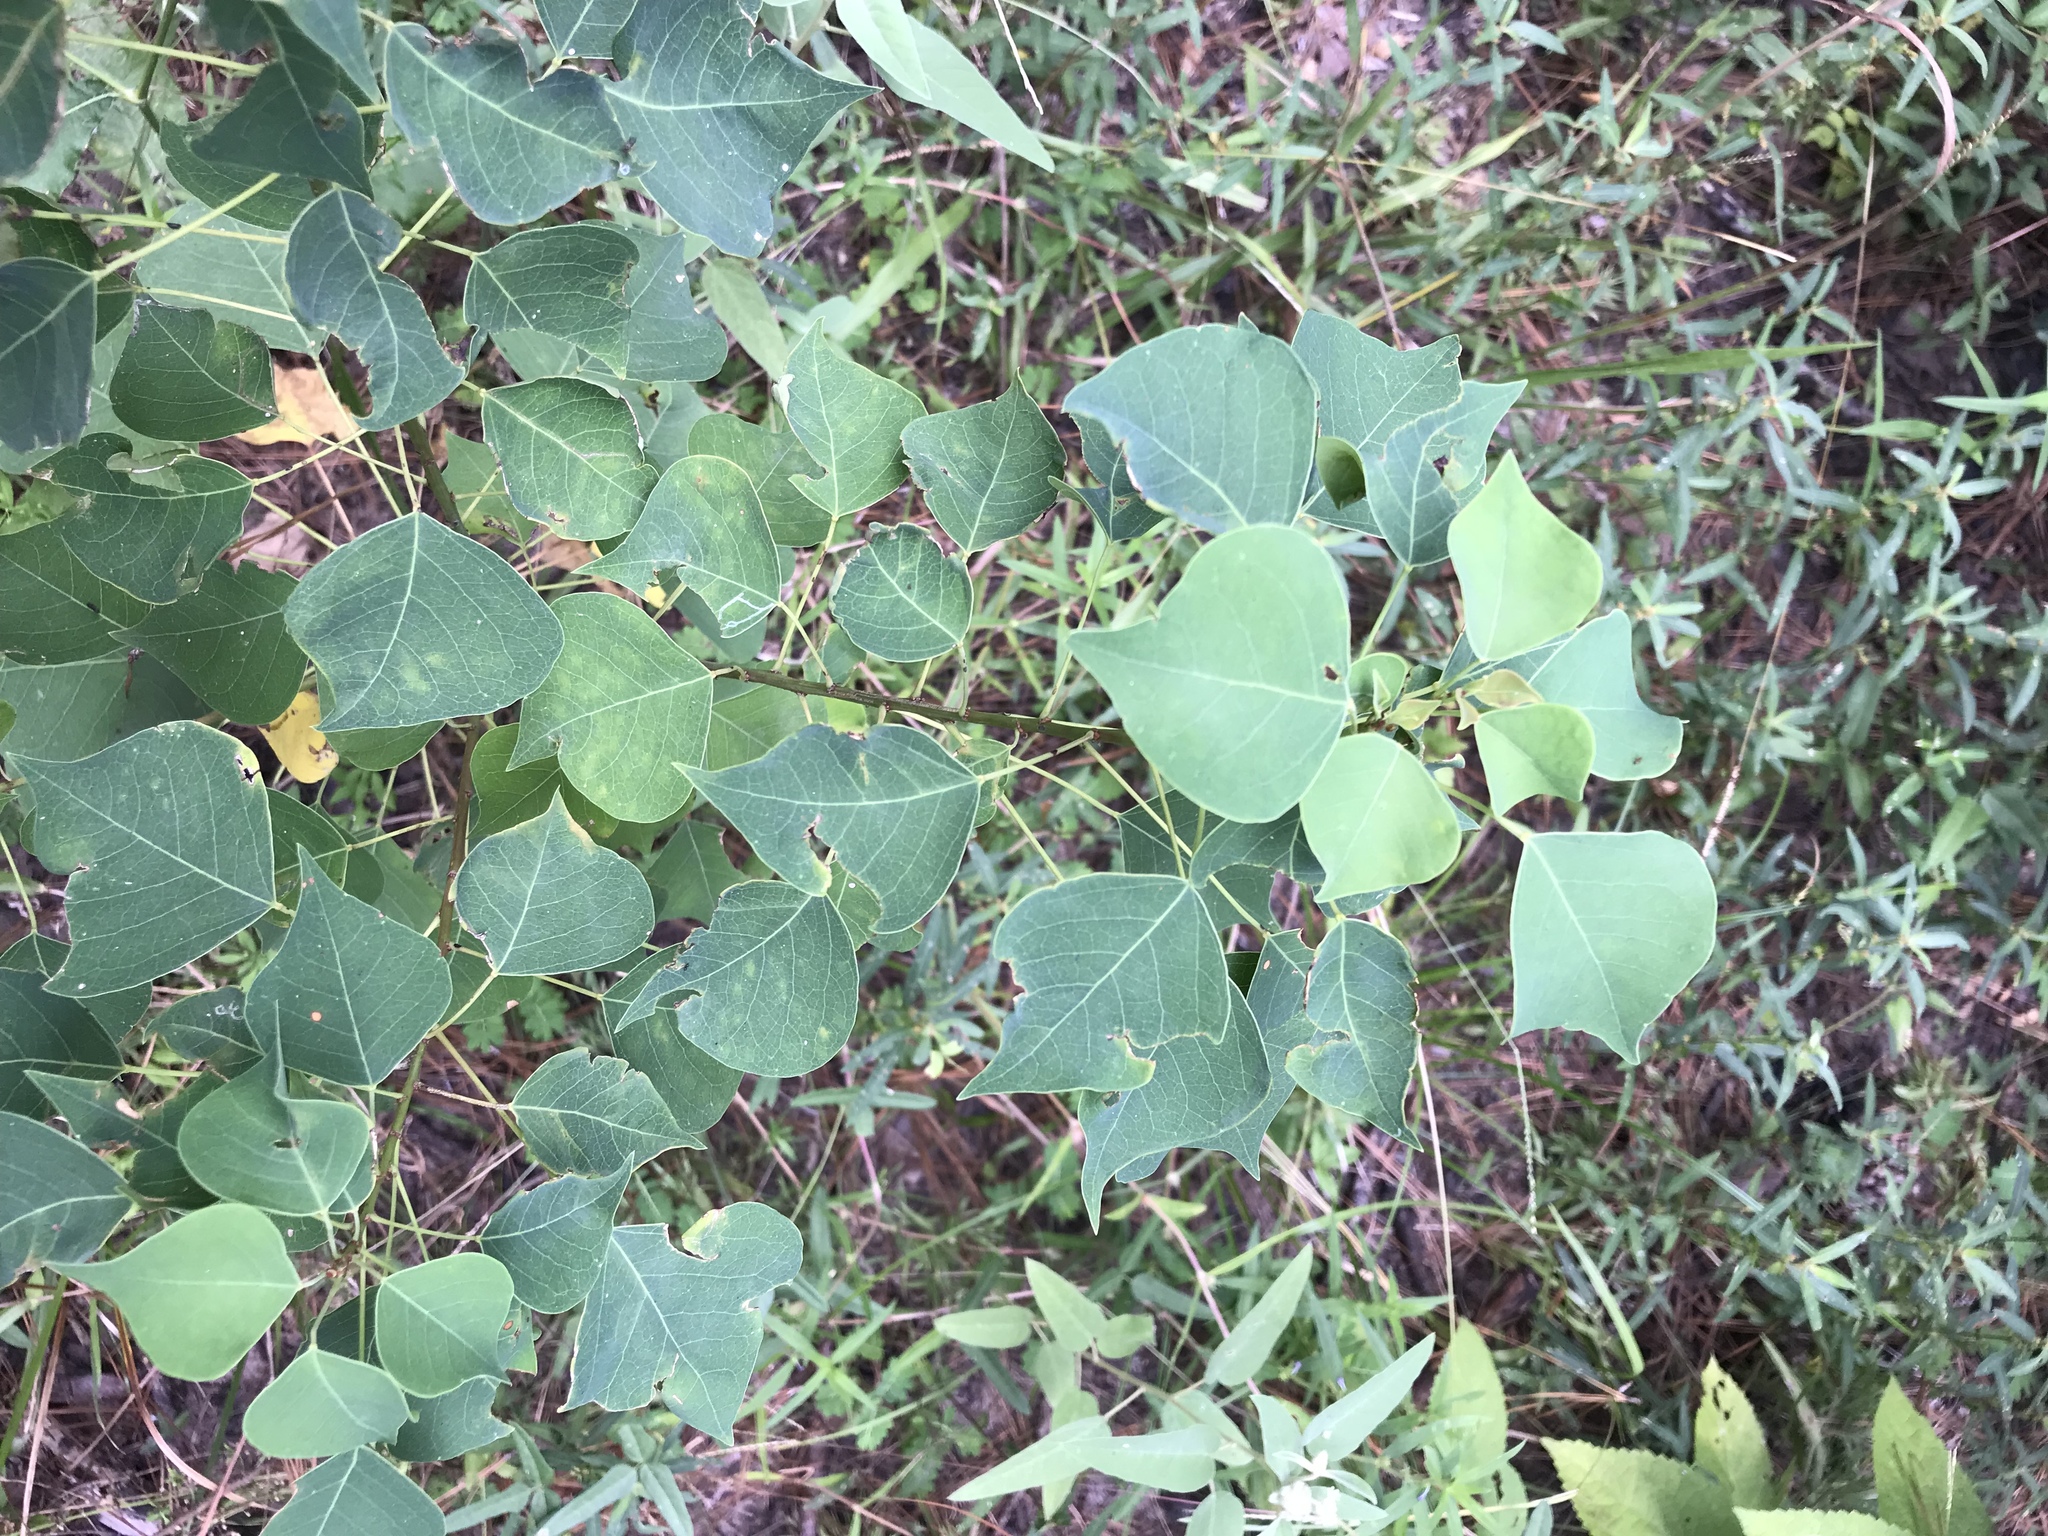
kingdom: Plantae
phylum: Tracheophyta
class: Magnoliopsida
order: Malpighiales
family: Euphorbiaceae
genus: Triadica
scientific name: Triadica sebifera
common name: Chinese tallow
